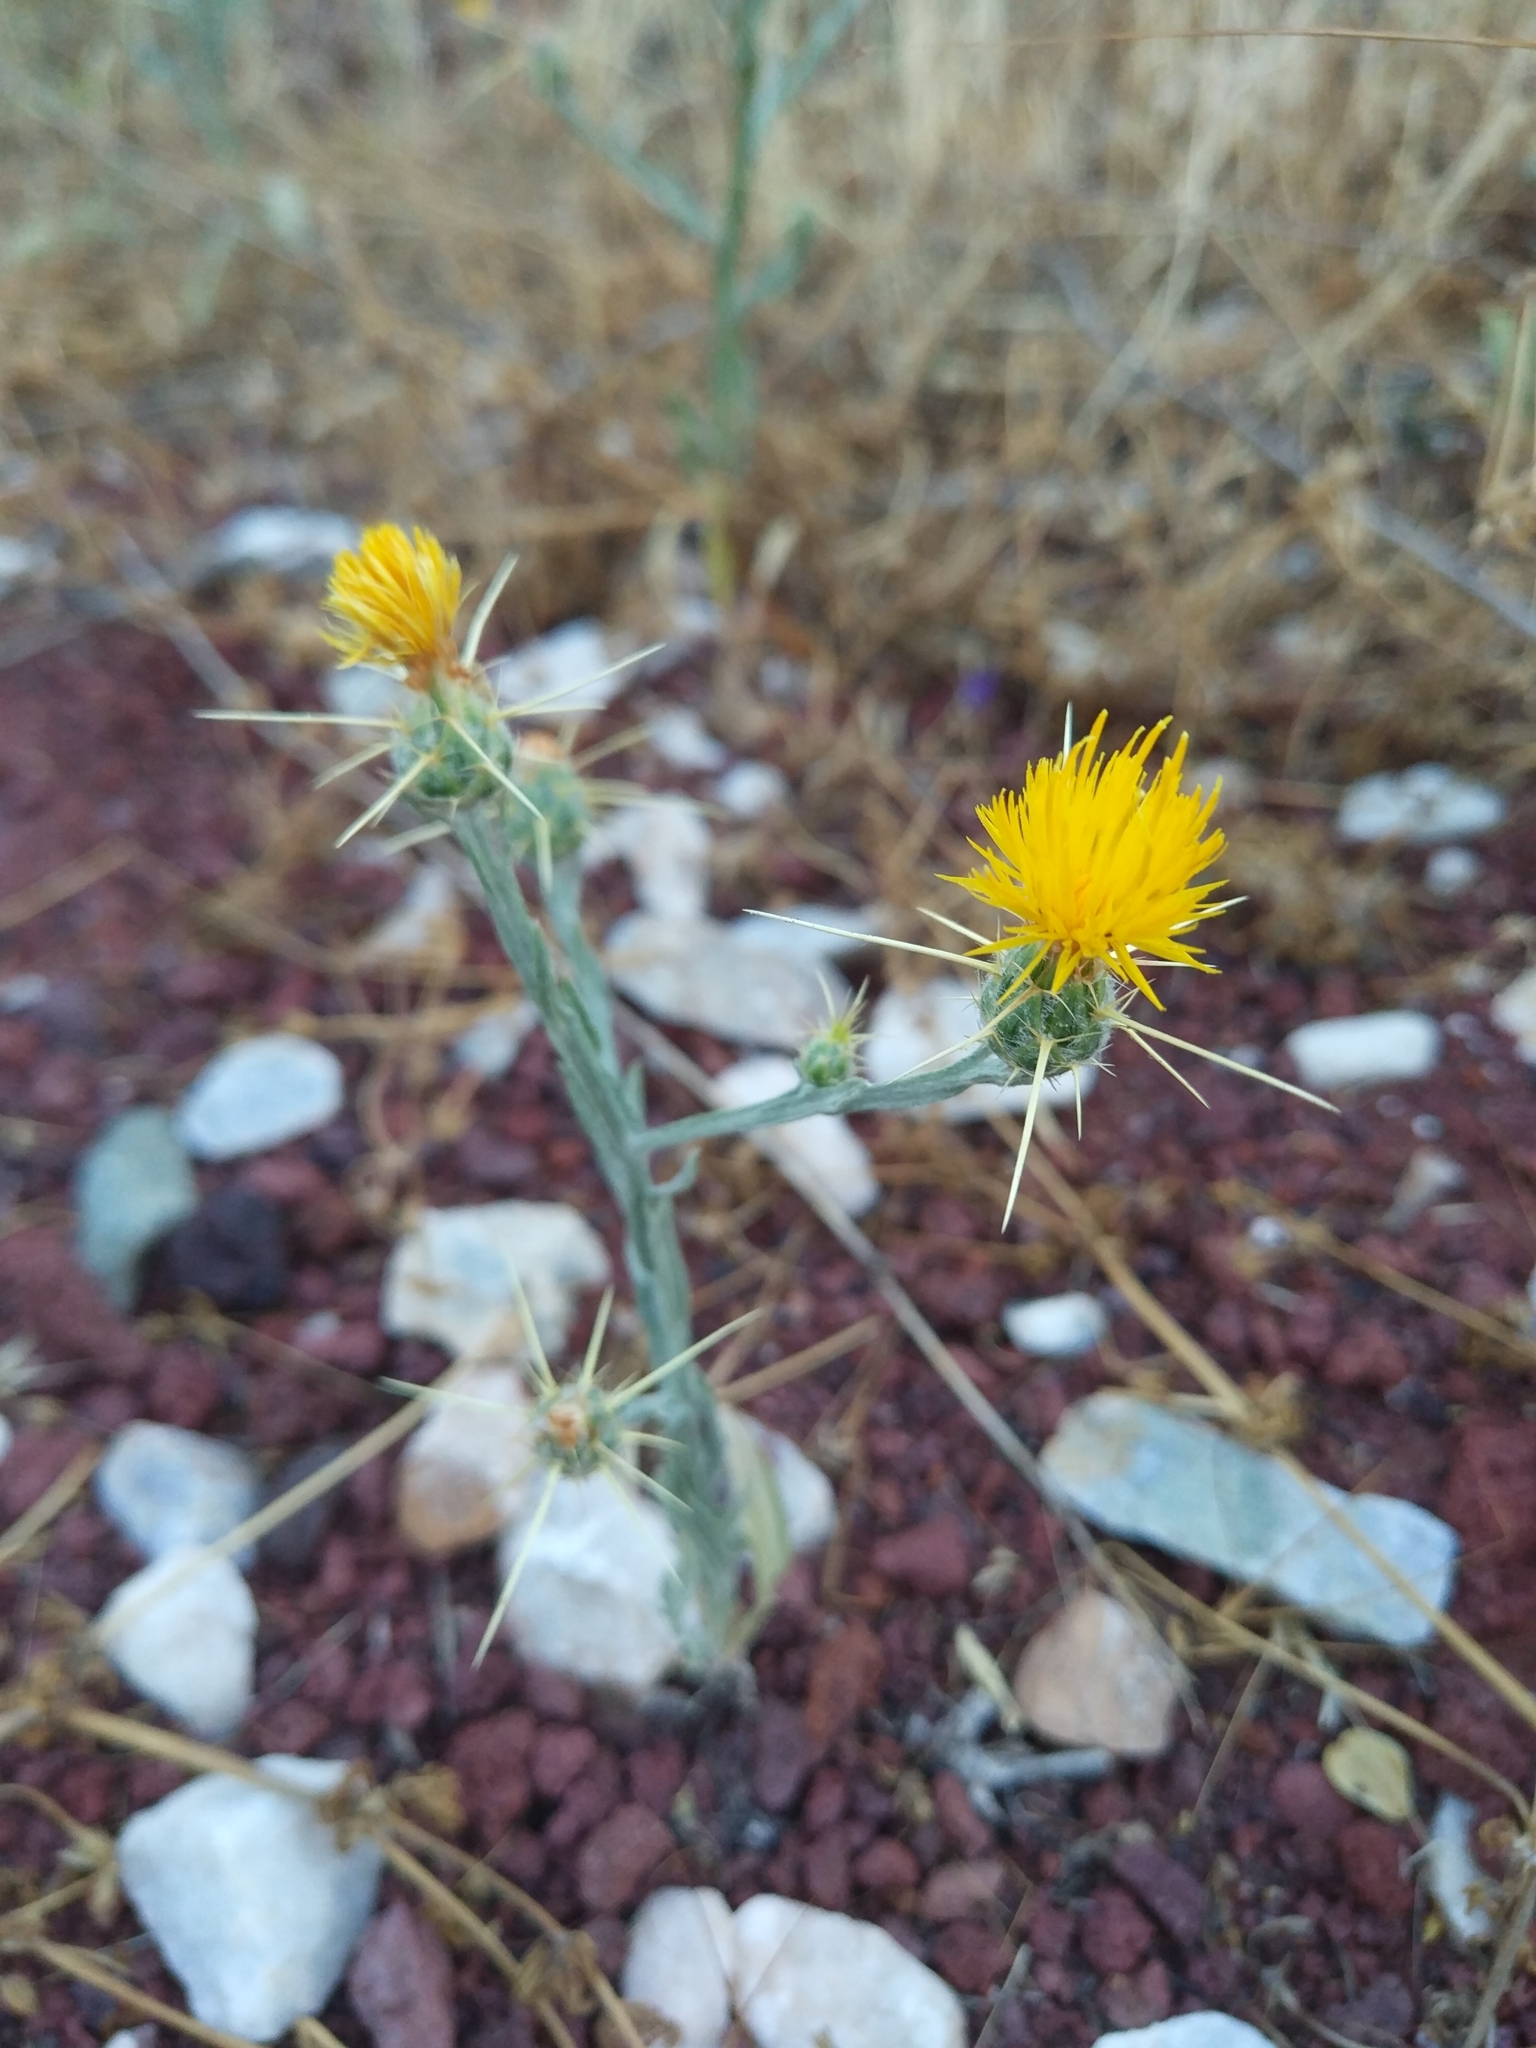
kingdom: Plantae
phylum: Tracheophyta
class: Magnoliopsida
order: Asterales
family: Asteraceae
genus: Centaurea
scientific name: Centaurea solstitialis
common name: Yellow star-thistle
